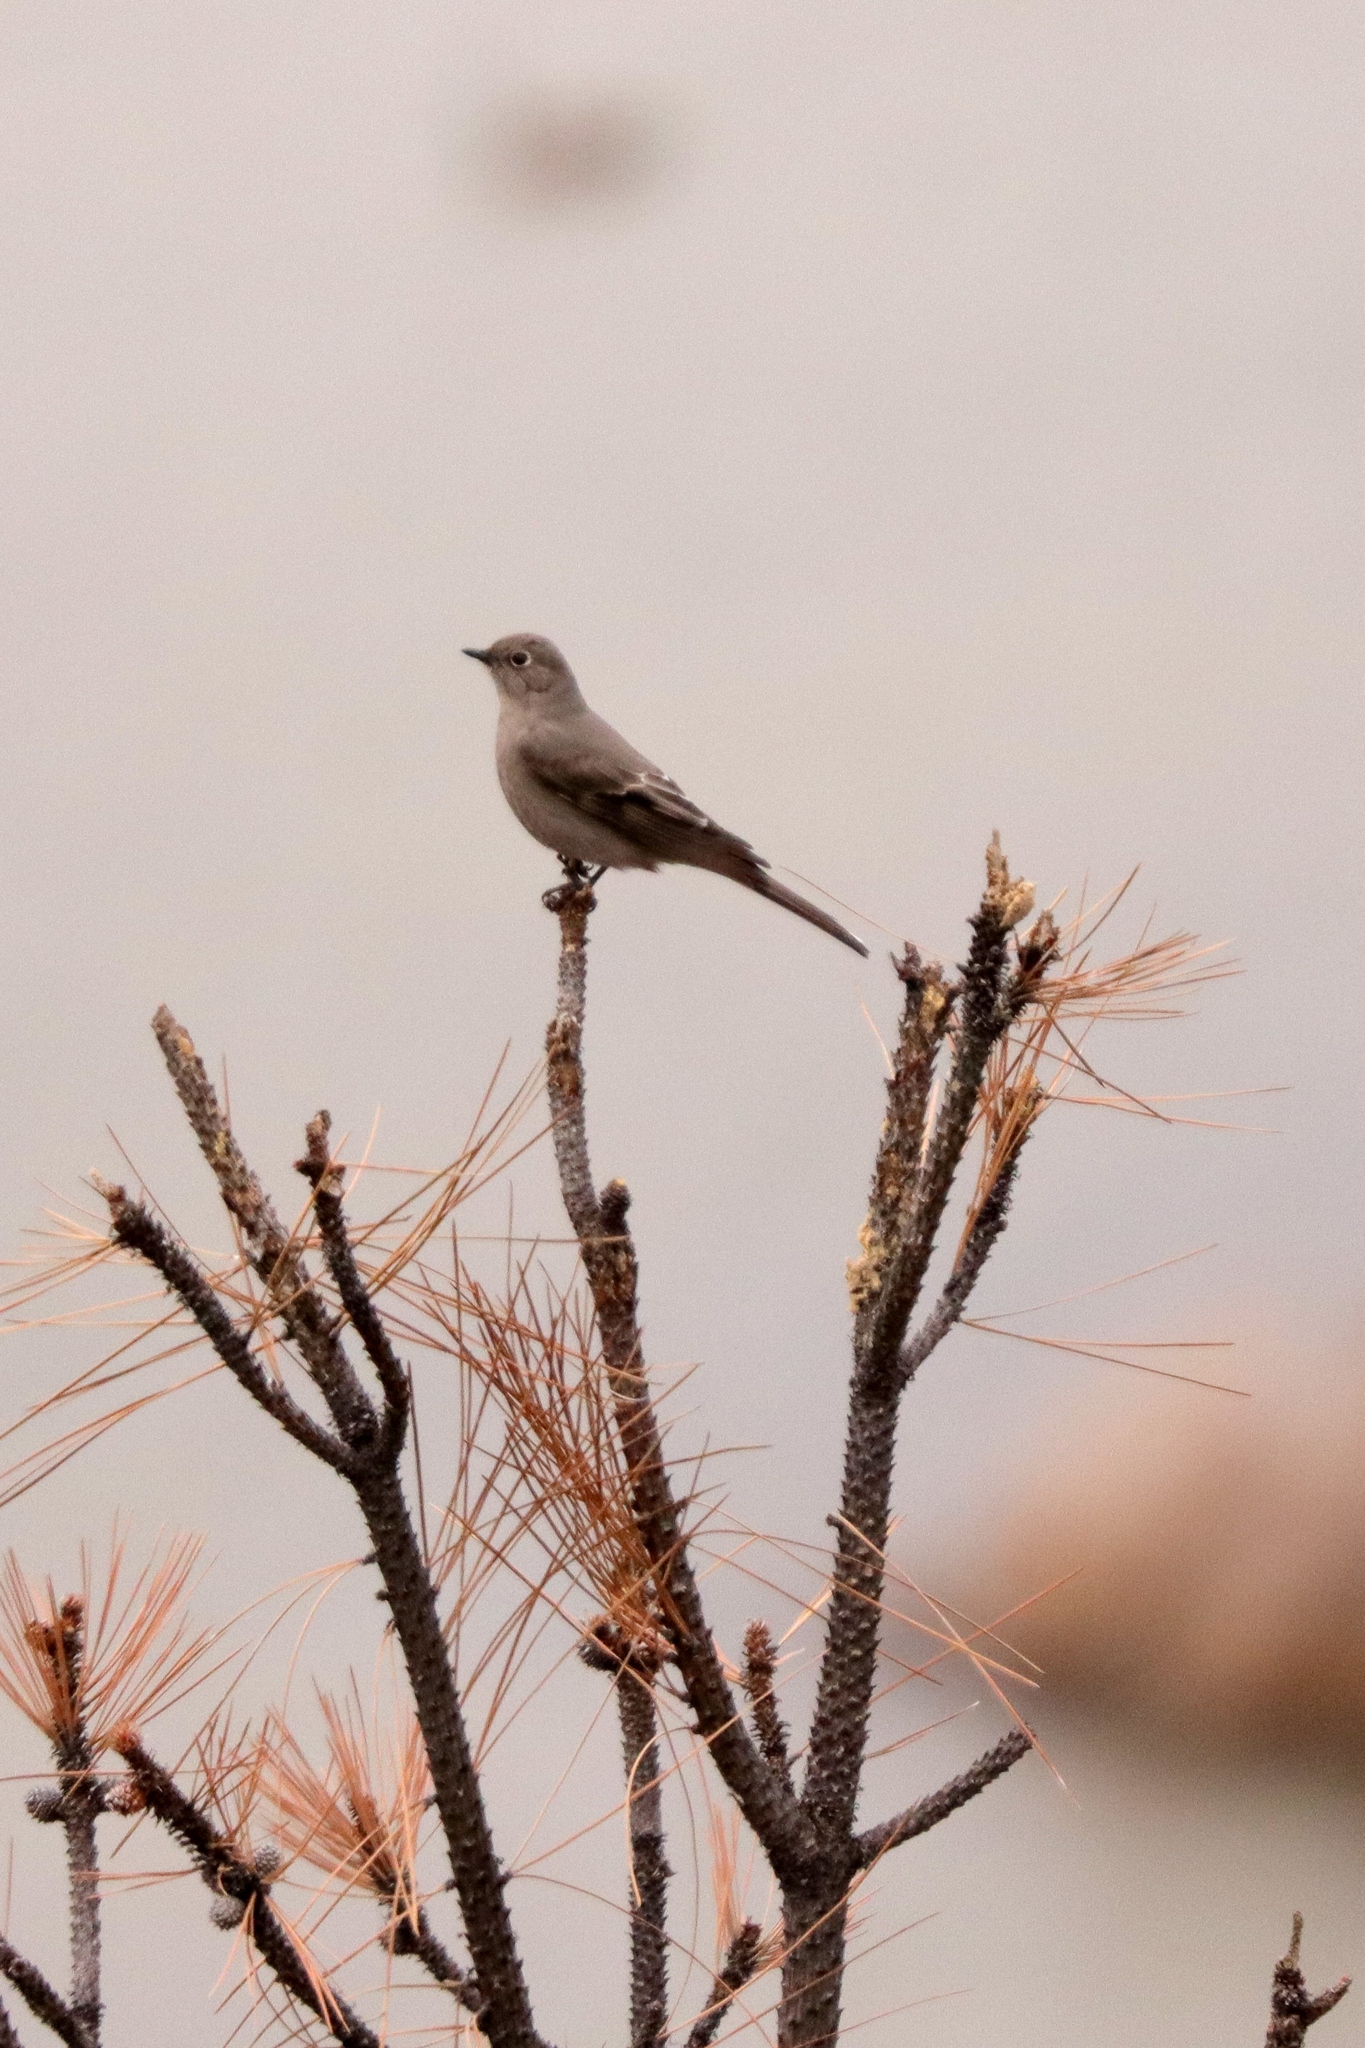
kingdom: Animalia
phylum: Chordata
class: Aves
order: Passeriformes
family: Turdidae
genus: Myadestes
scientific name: Myadestes townsendi
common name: Townsend's solitaire
